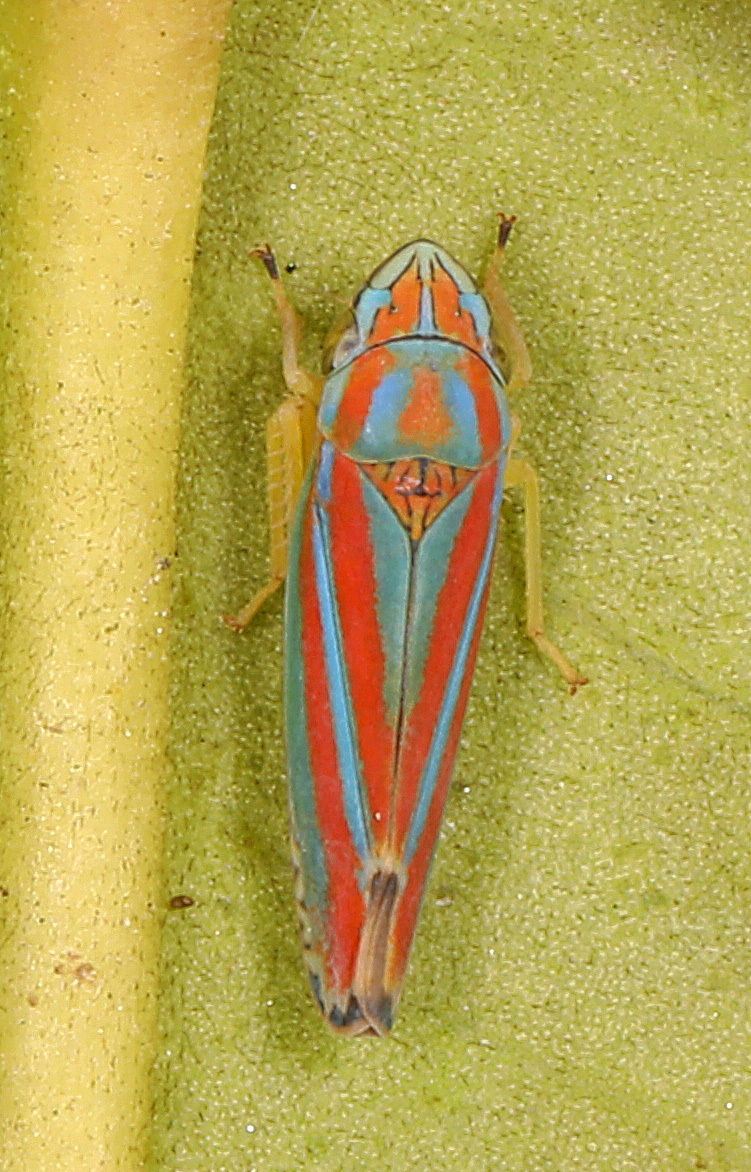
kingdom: Animalia
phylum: Arthropoda
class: Insecta
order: Hemiptera
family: Cicadellidae
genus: Graphocephala
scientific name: Graphocephala versuta
